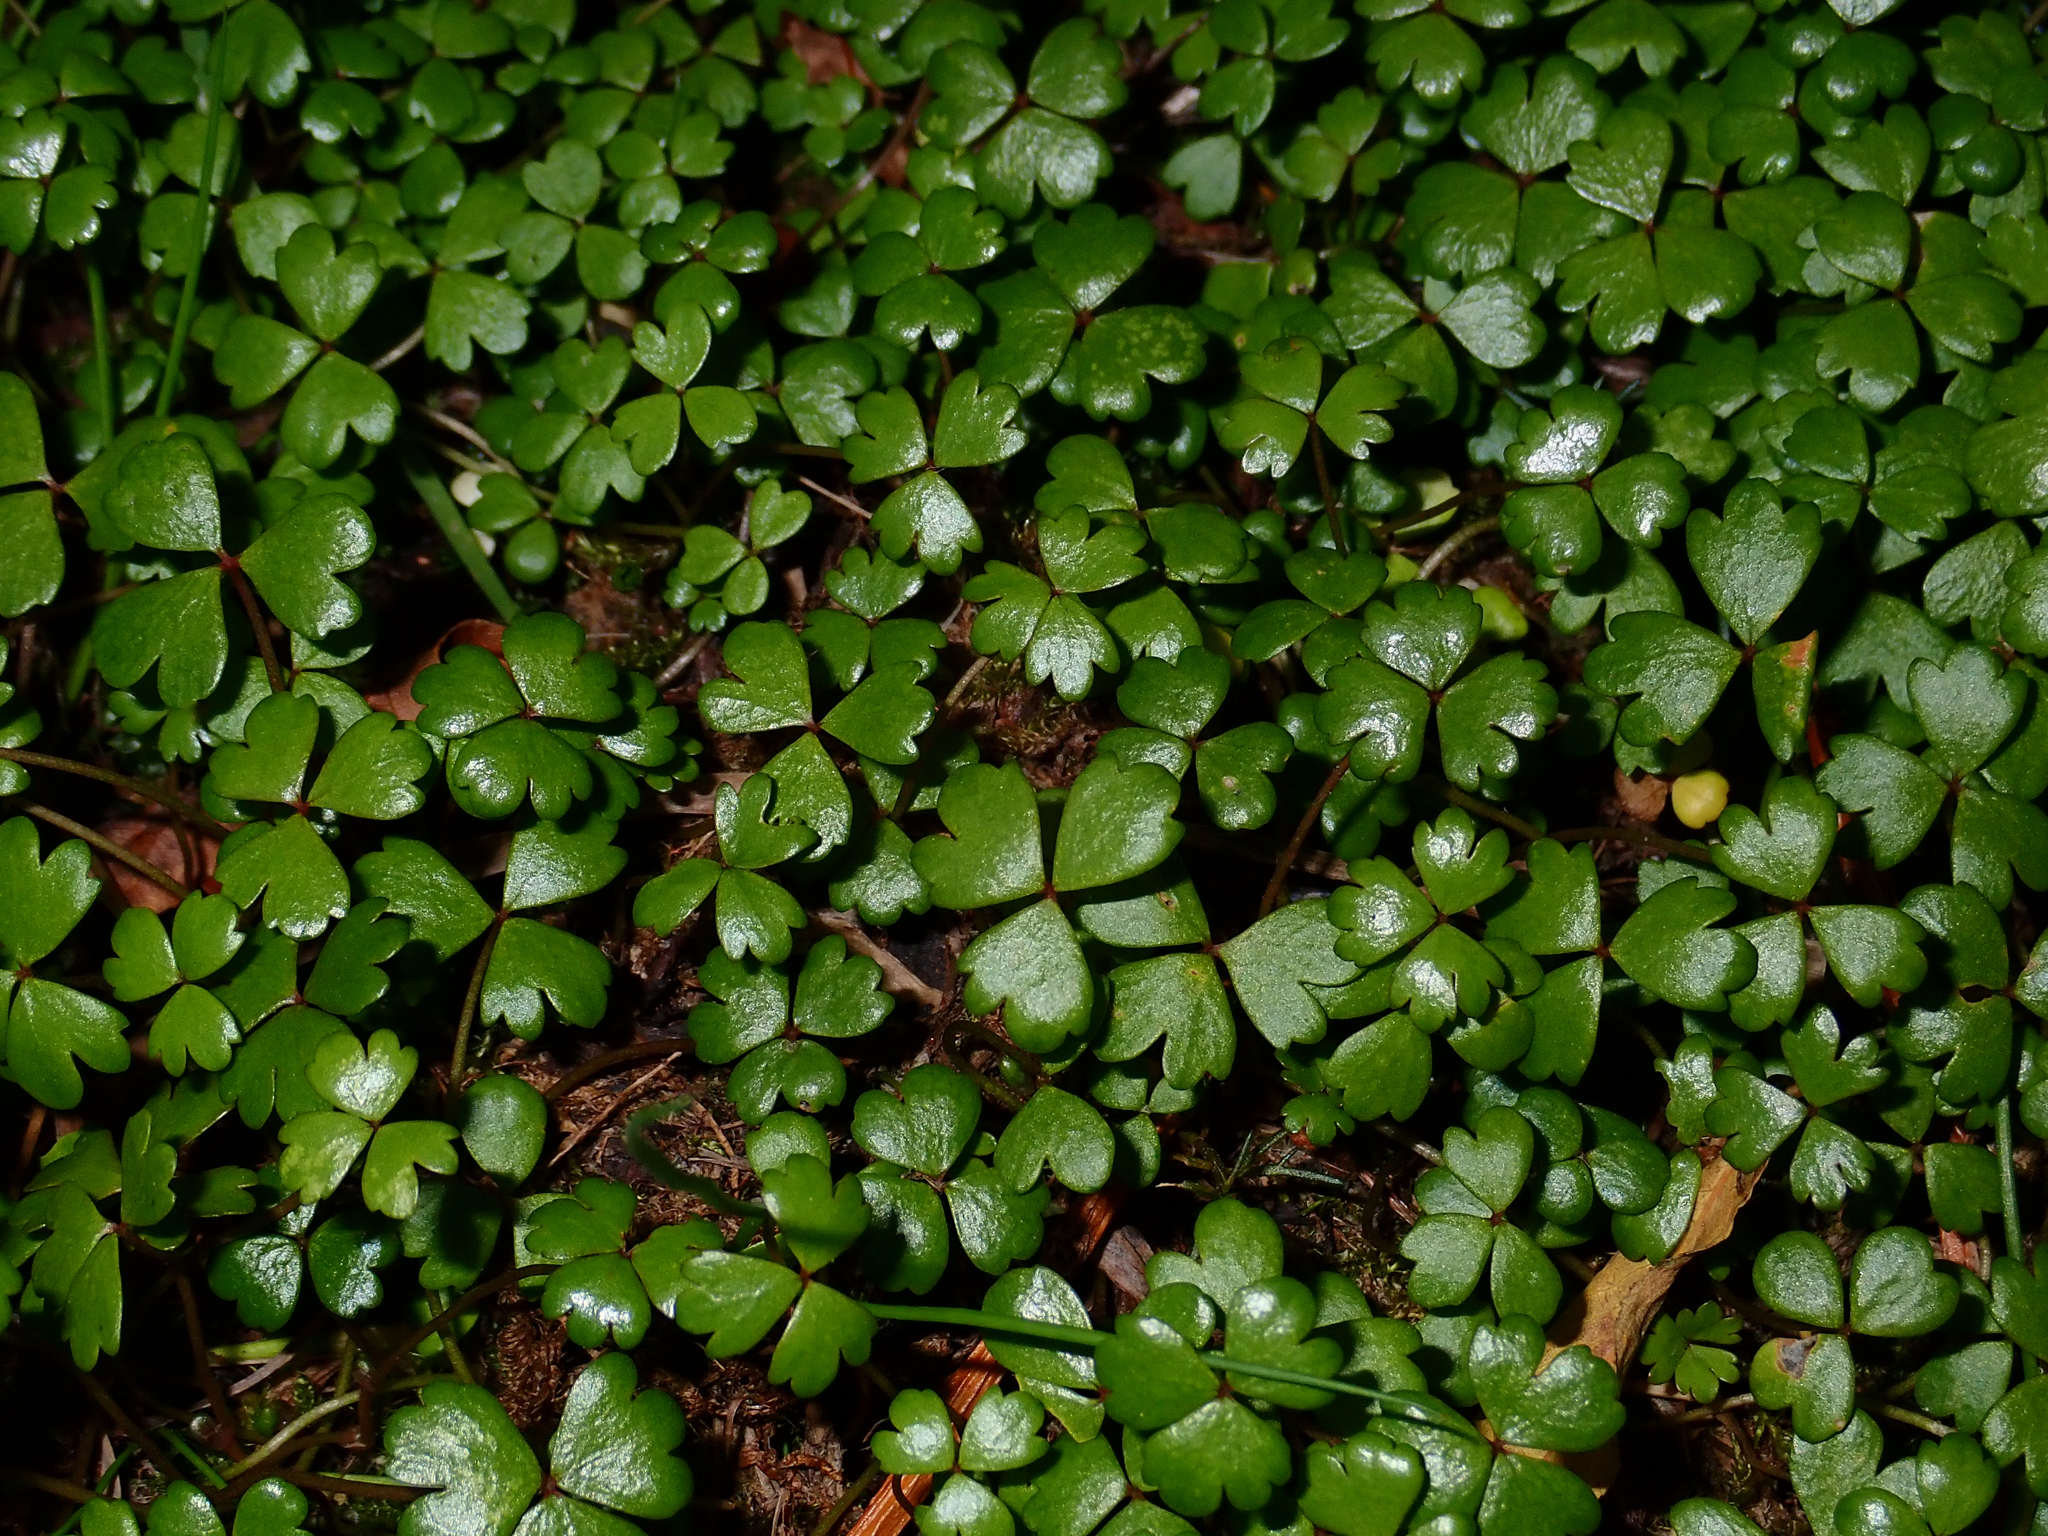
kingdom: Plantae
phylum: Tracheophyta
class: Magnoliopsida
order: Apiales
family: Araliaceae
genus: Hydrocotyle
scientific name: Hydrocotyle sulcata
